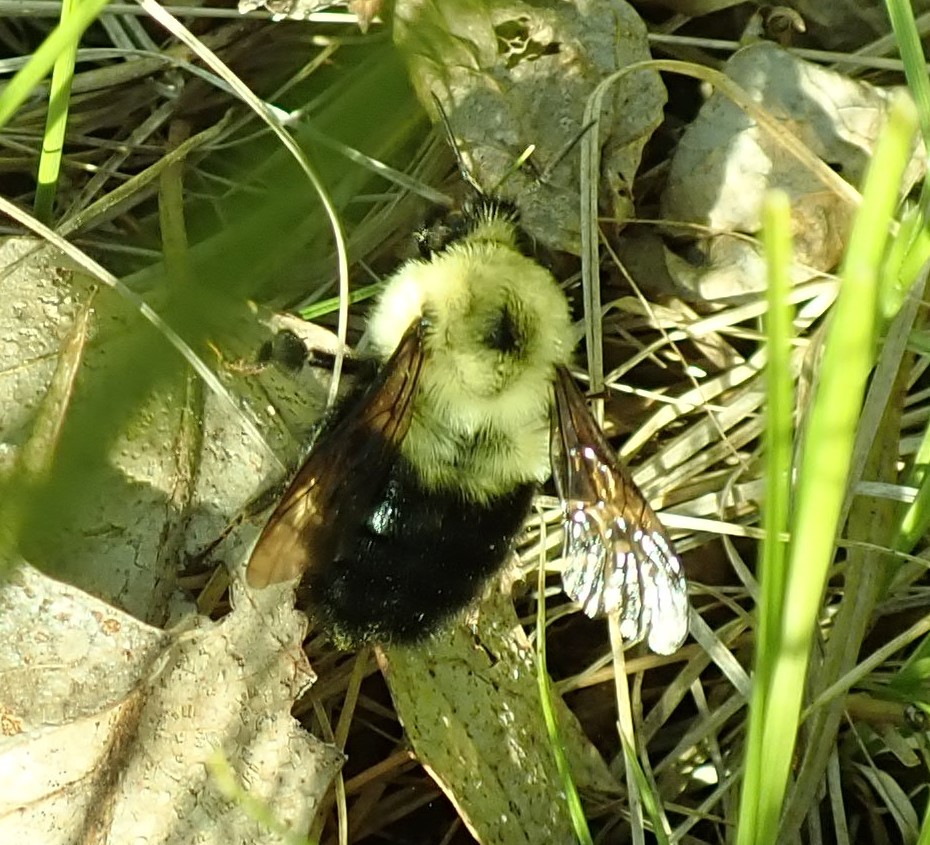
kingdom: Animalia
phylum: Arthropoda
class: Insecta
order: Hymenoptera
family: Apidae
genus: Bombus
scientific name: Bombus bimaculatus
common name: Two-spotted bumble bee
